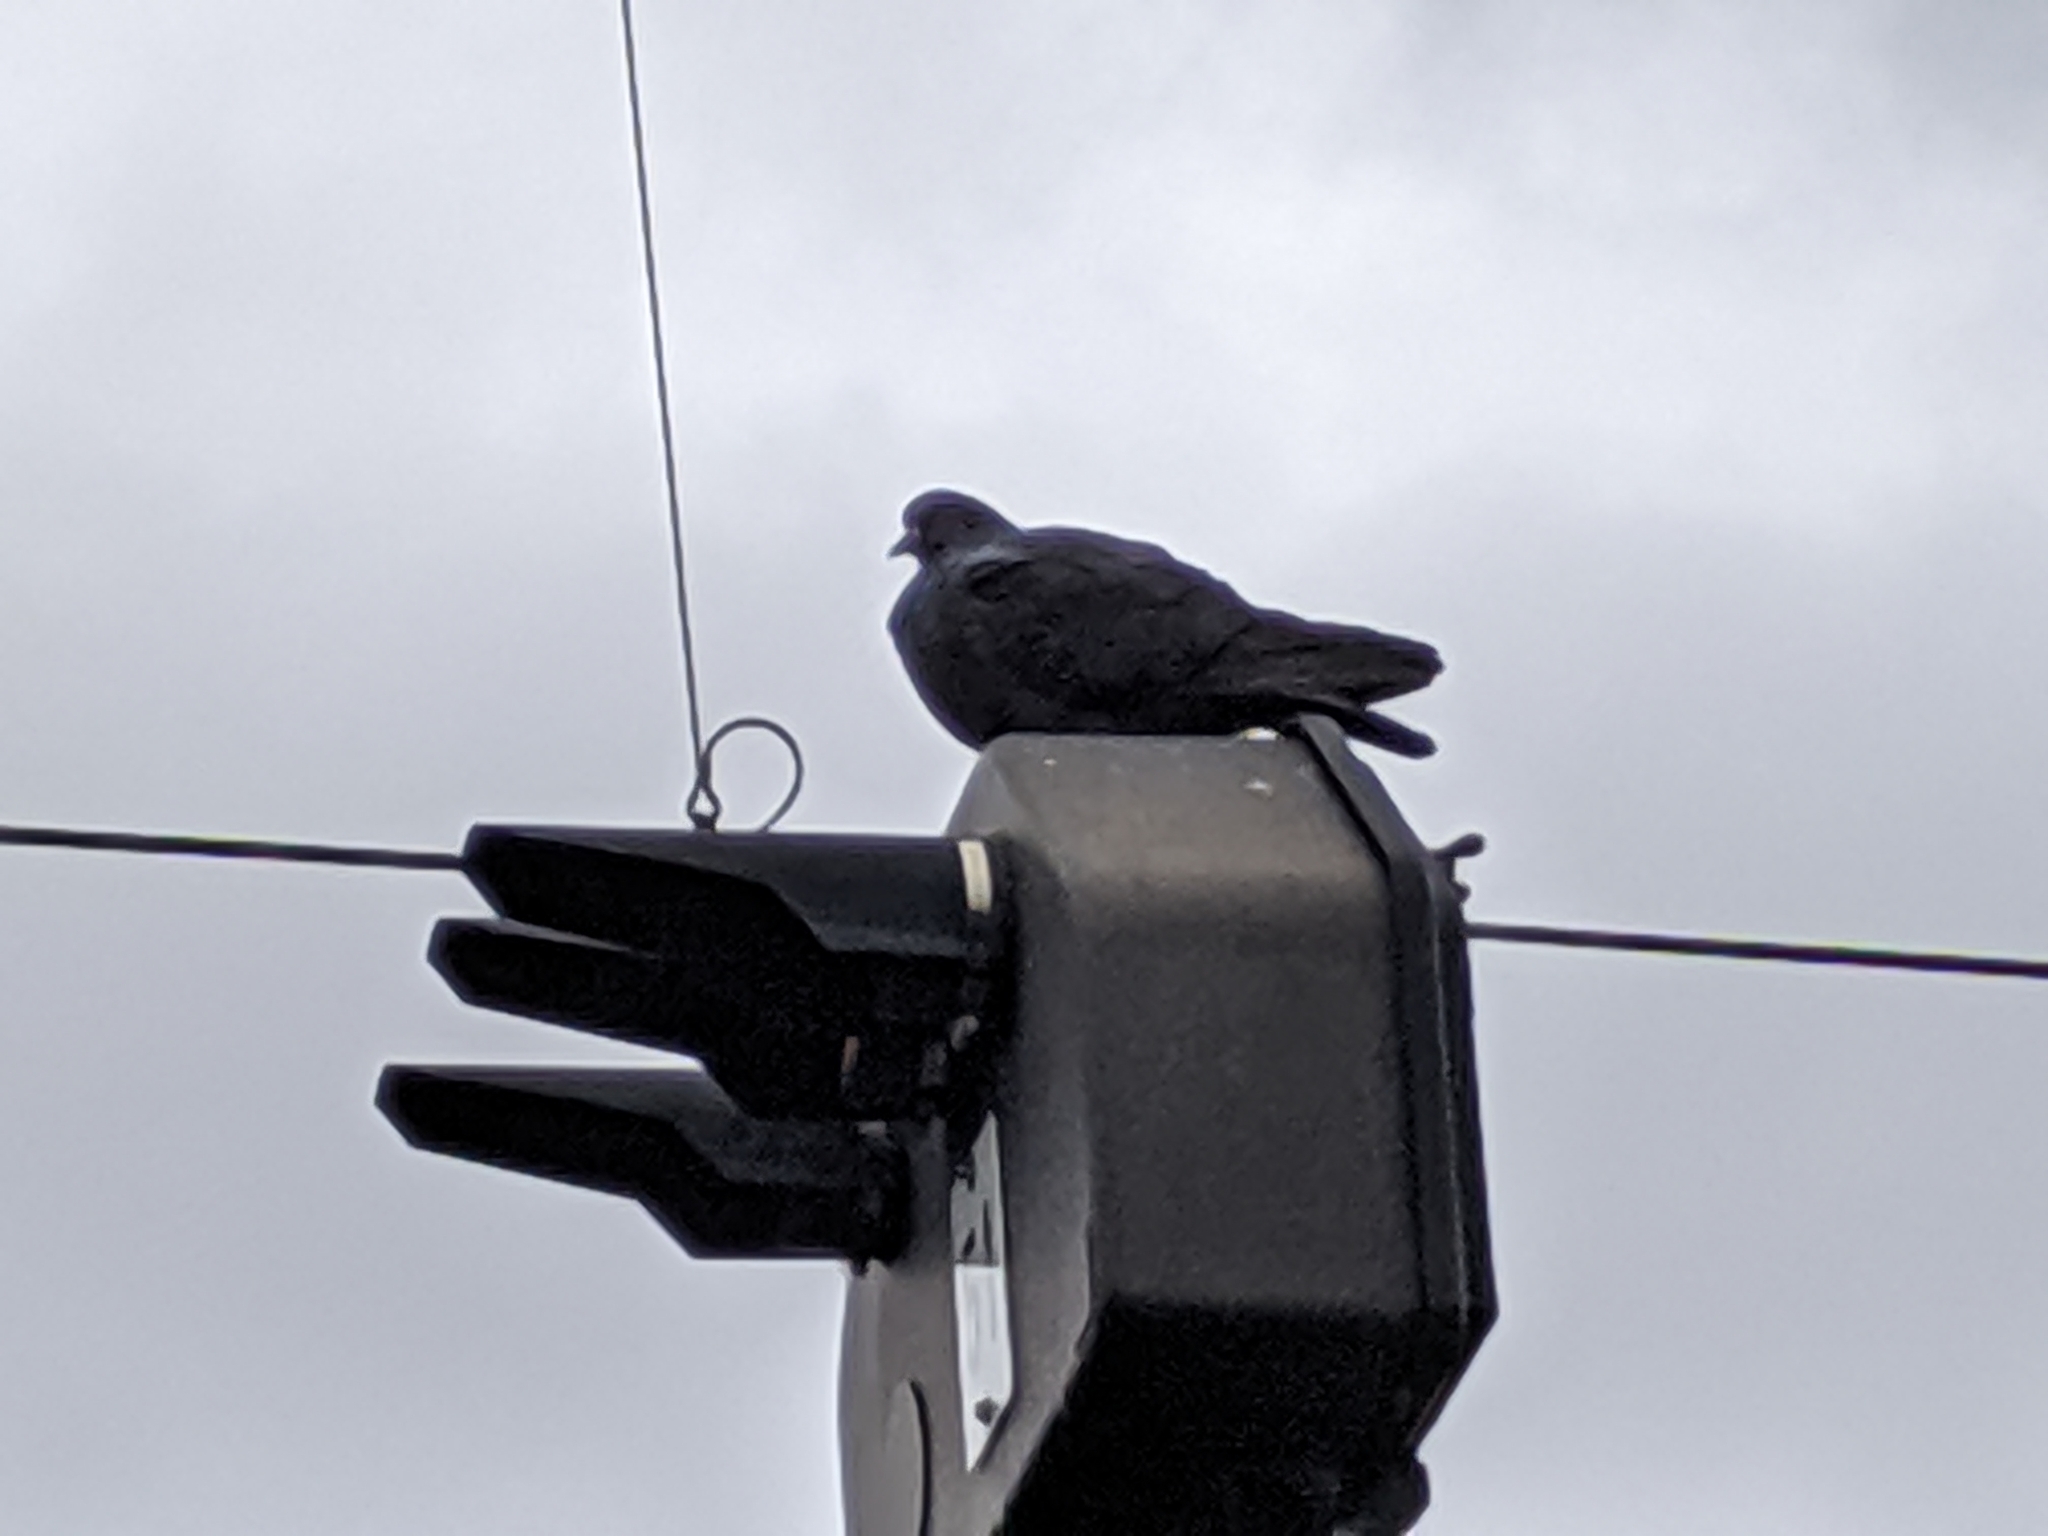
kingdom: Animalia
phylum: Chordata
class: Aves
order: Columbiformes
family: Columbidae
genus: Columba
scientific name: Columba livia
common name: Rock pigeon
